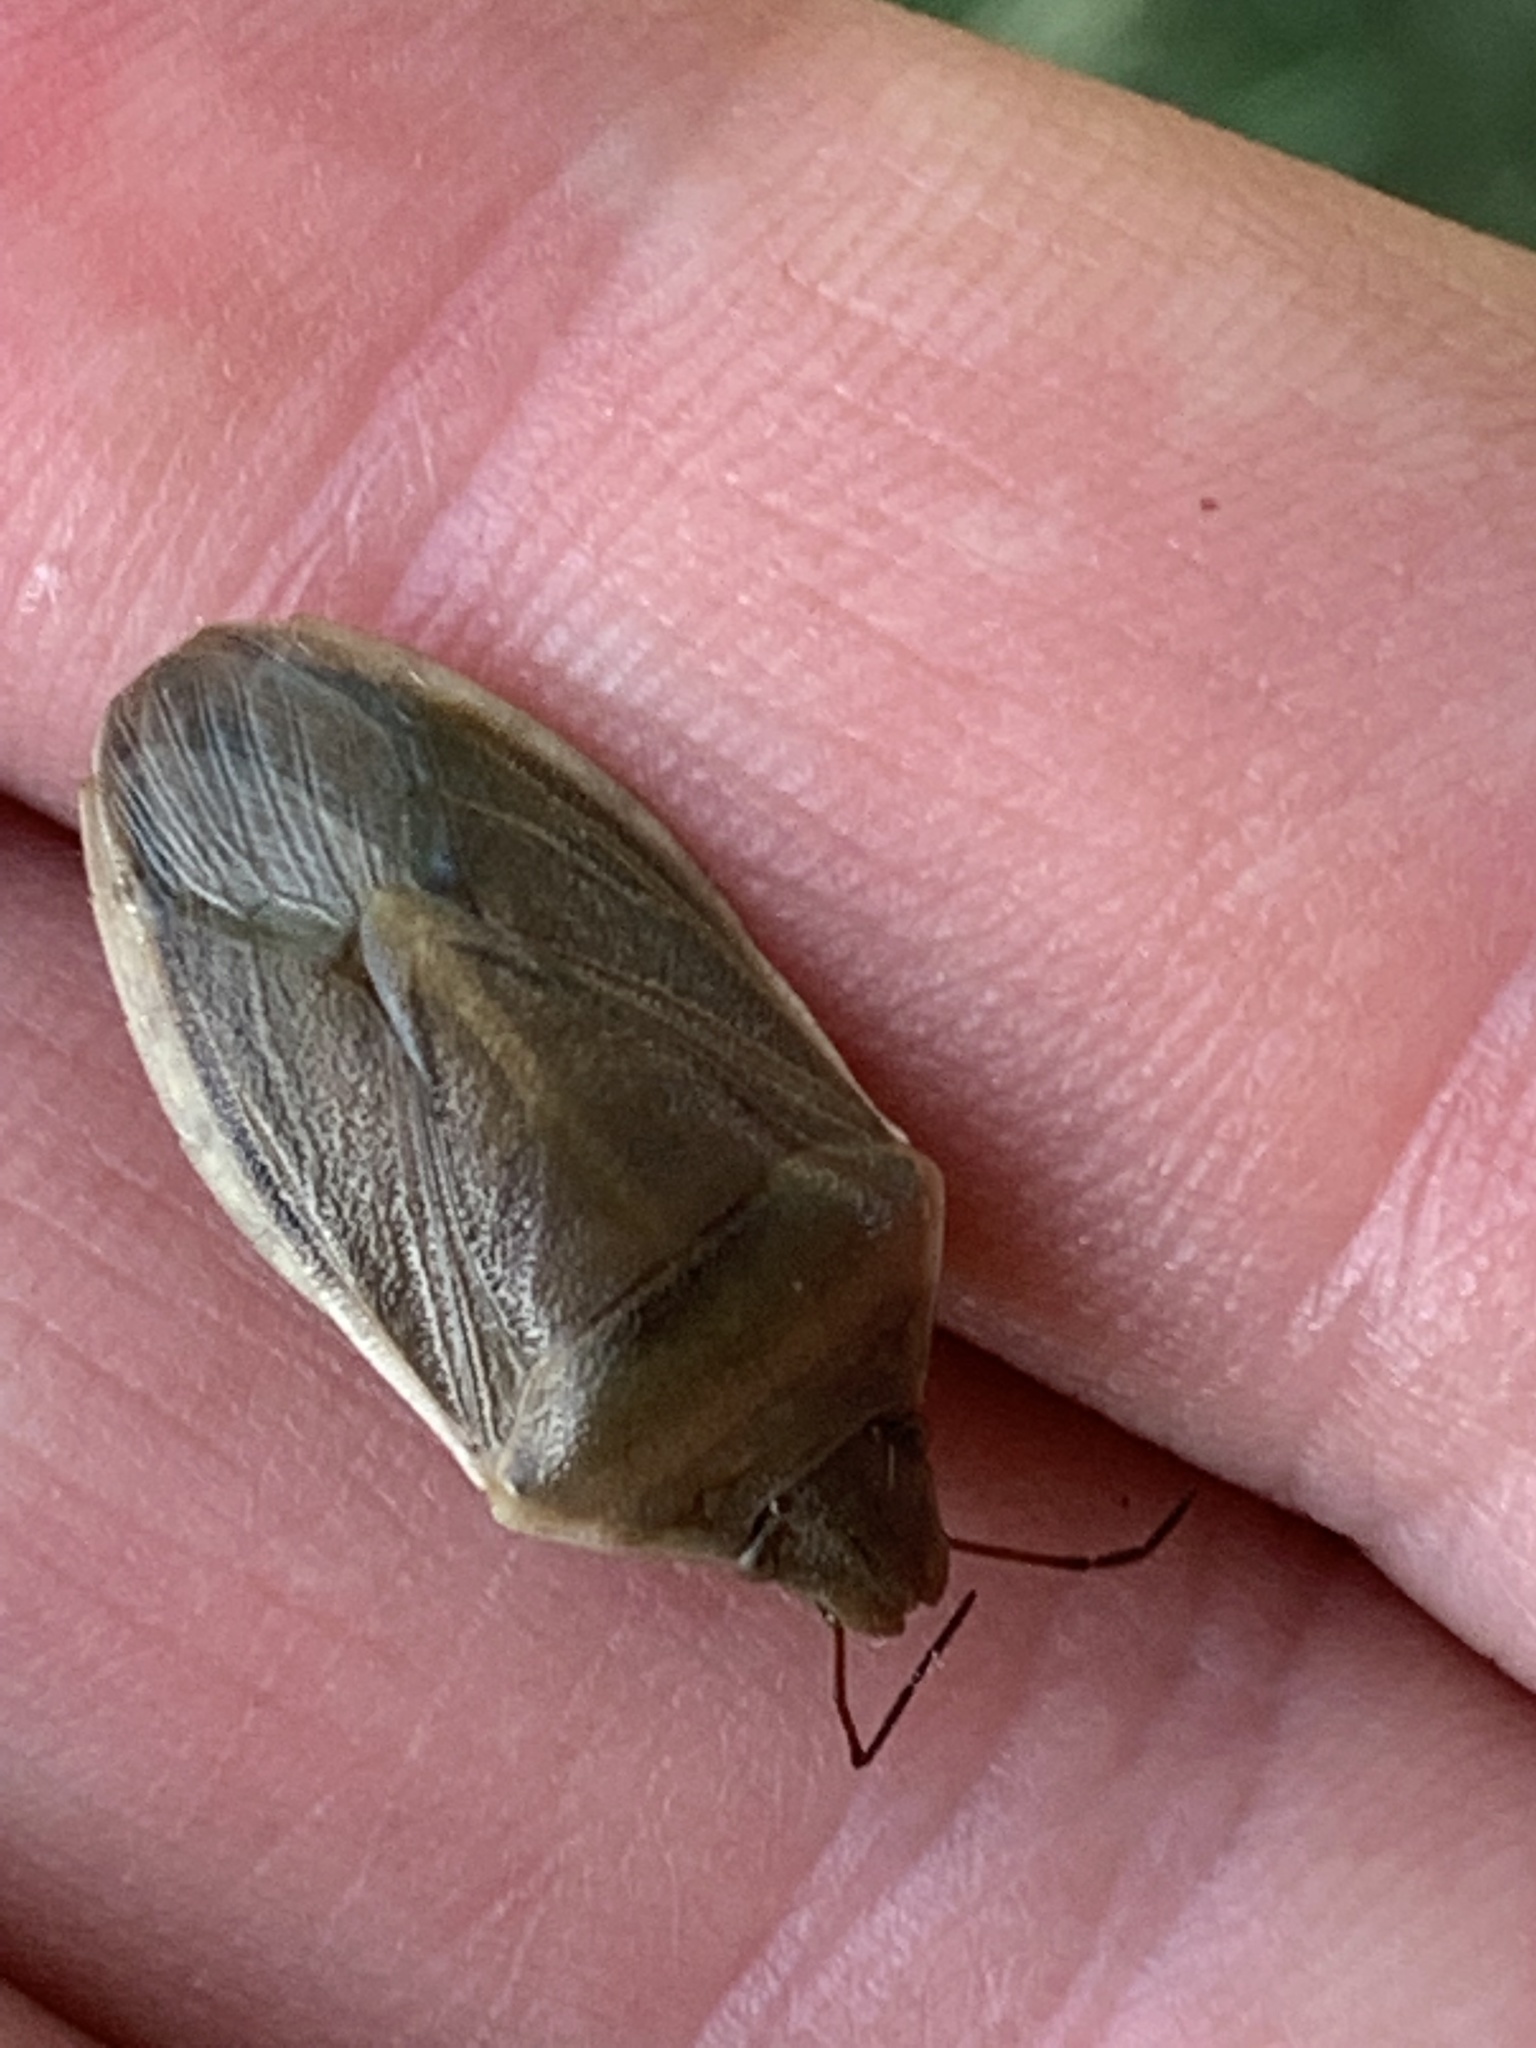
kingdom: Animalia
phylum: Arthropoda
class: Insecta
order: Hemiptera
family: Pentatomidae
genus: Chlorochroa
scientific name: Chlorochroa senilis
